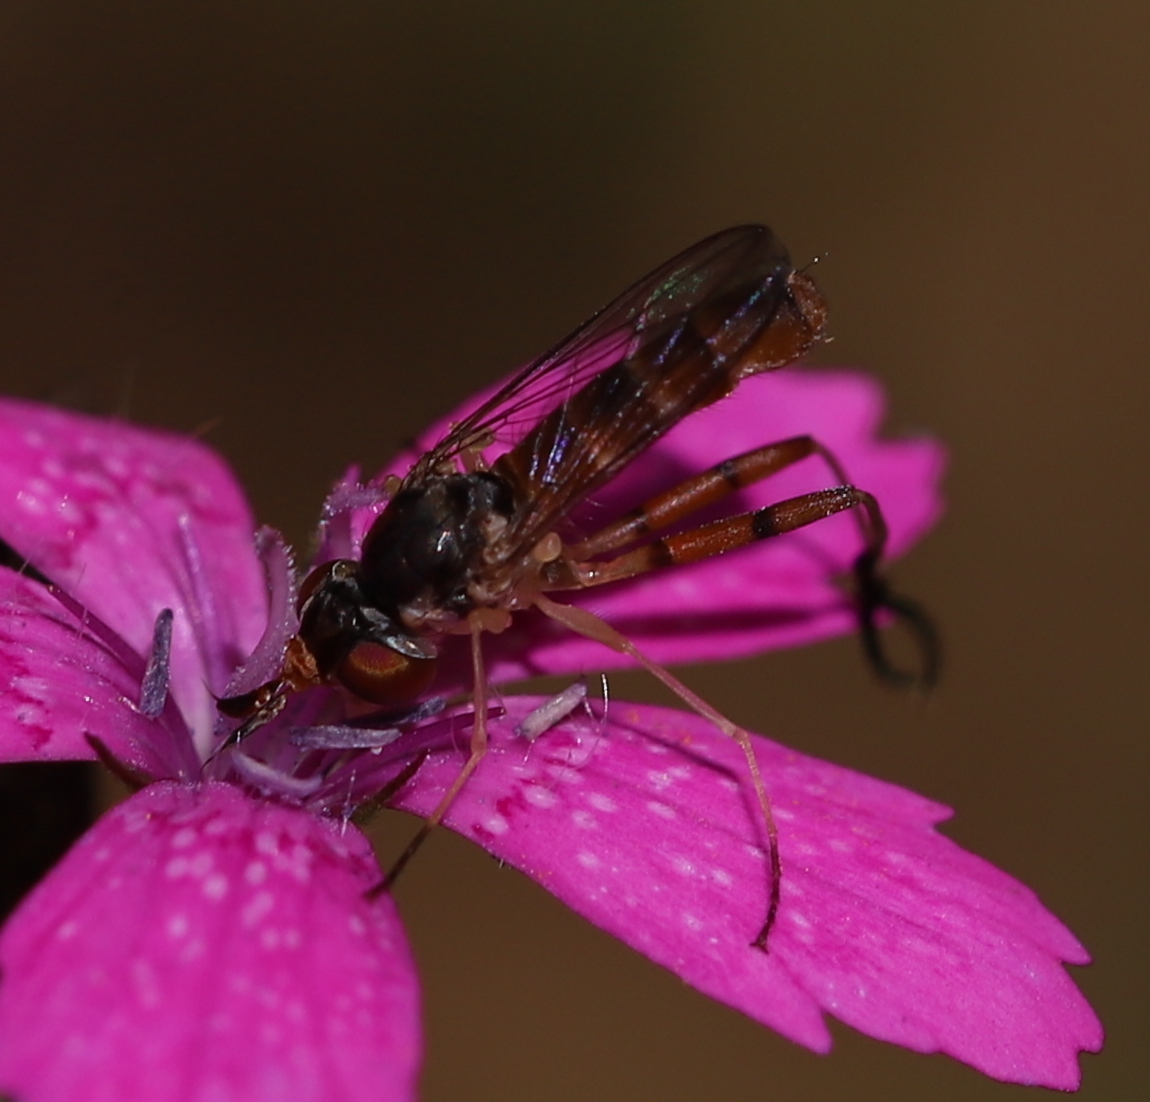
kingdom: Animalia
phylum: Arthropoda
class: Insecta
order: Diptera
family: Conopidae
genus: Stylogaster
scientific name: Stylogaster neglecta
